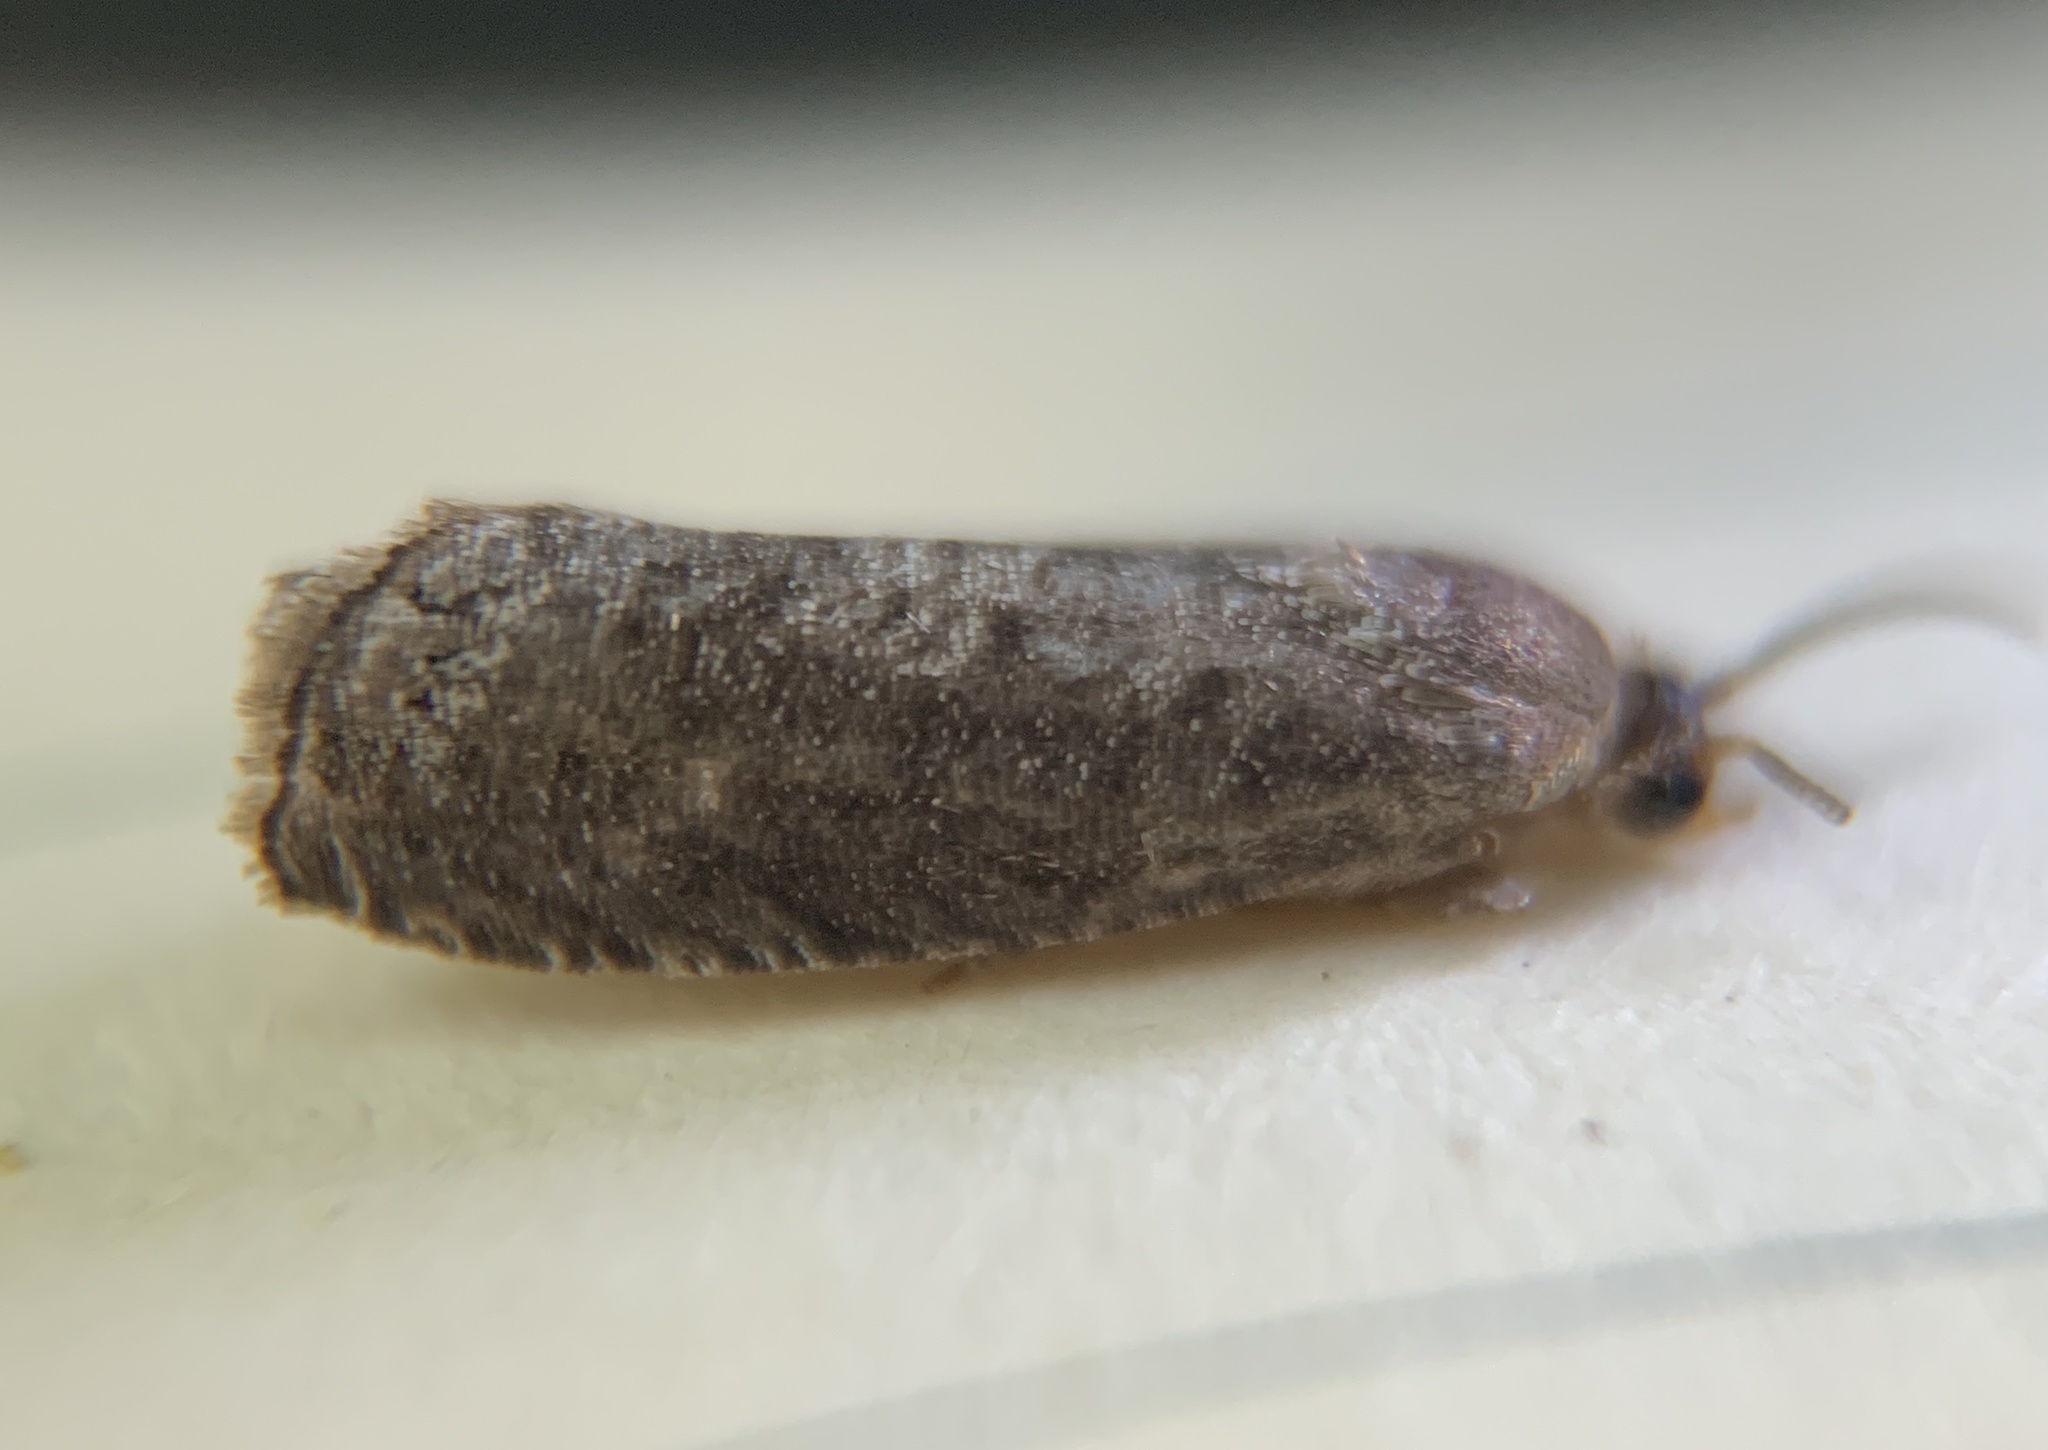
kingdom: Animalia
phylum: Arthropoda
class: Insecta
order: Lepidoptera
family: Noctuidae
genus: Aspila
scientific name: Aspila
